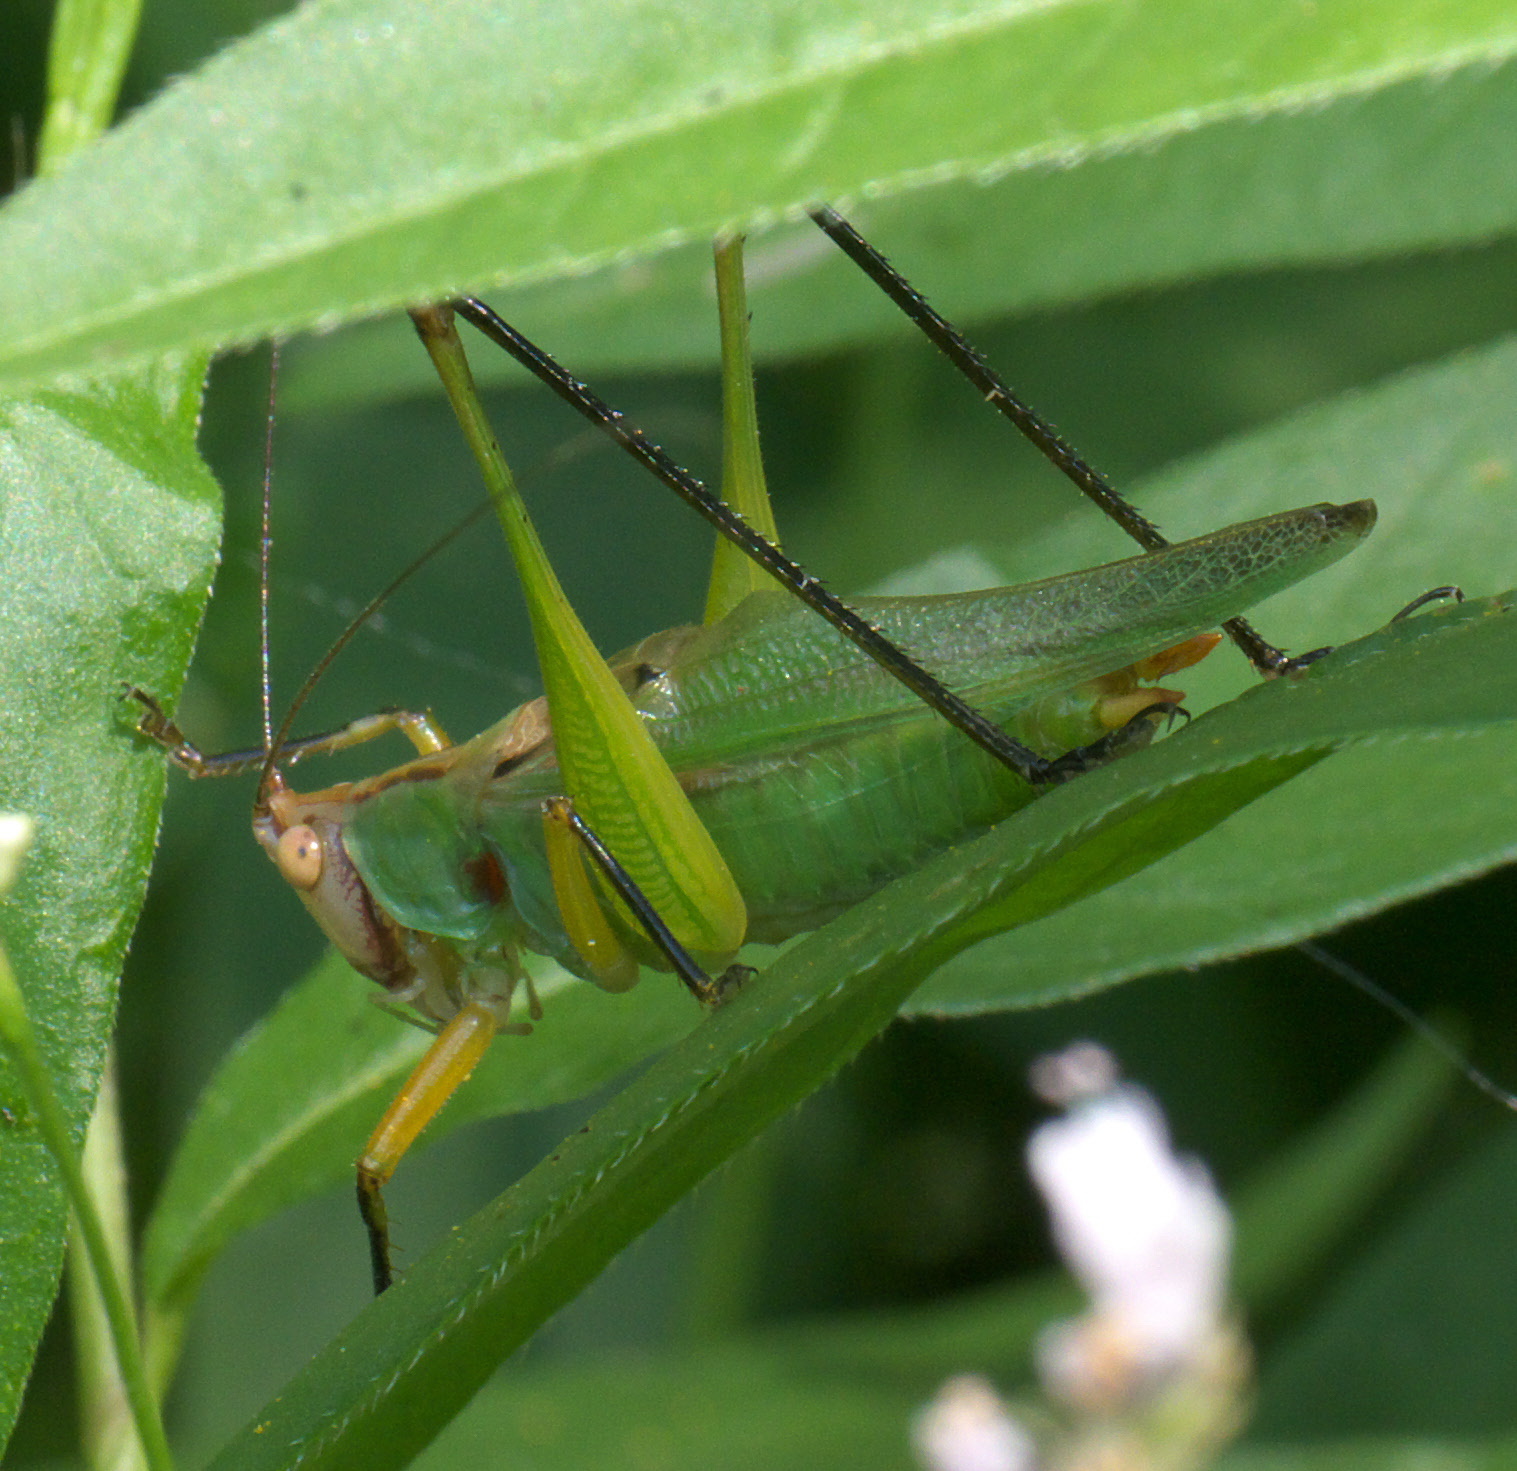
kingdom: Animalia
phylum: Arthropoda
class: Insecta
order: Orthoptera
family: Tettigoniidae
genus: Orchelimum
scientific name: Orchelimum nigripes
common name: Black-legged meadow katydid
